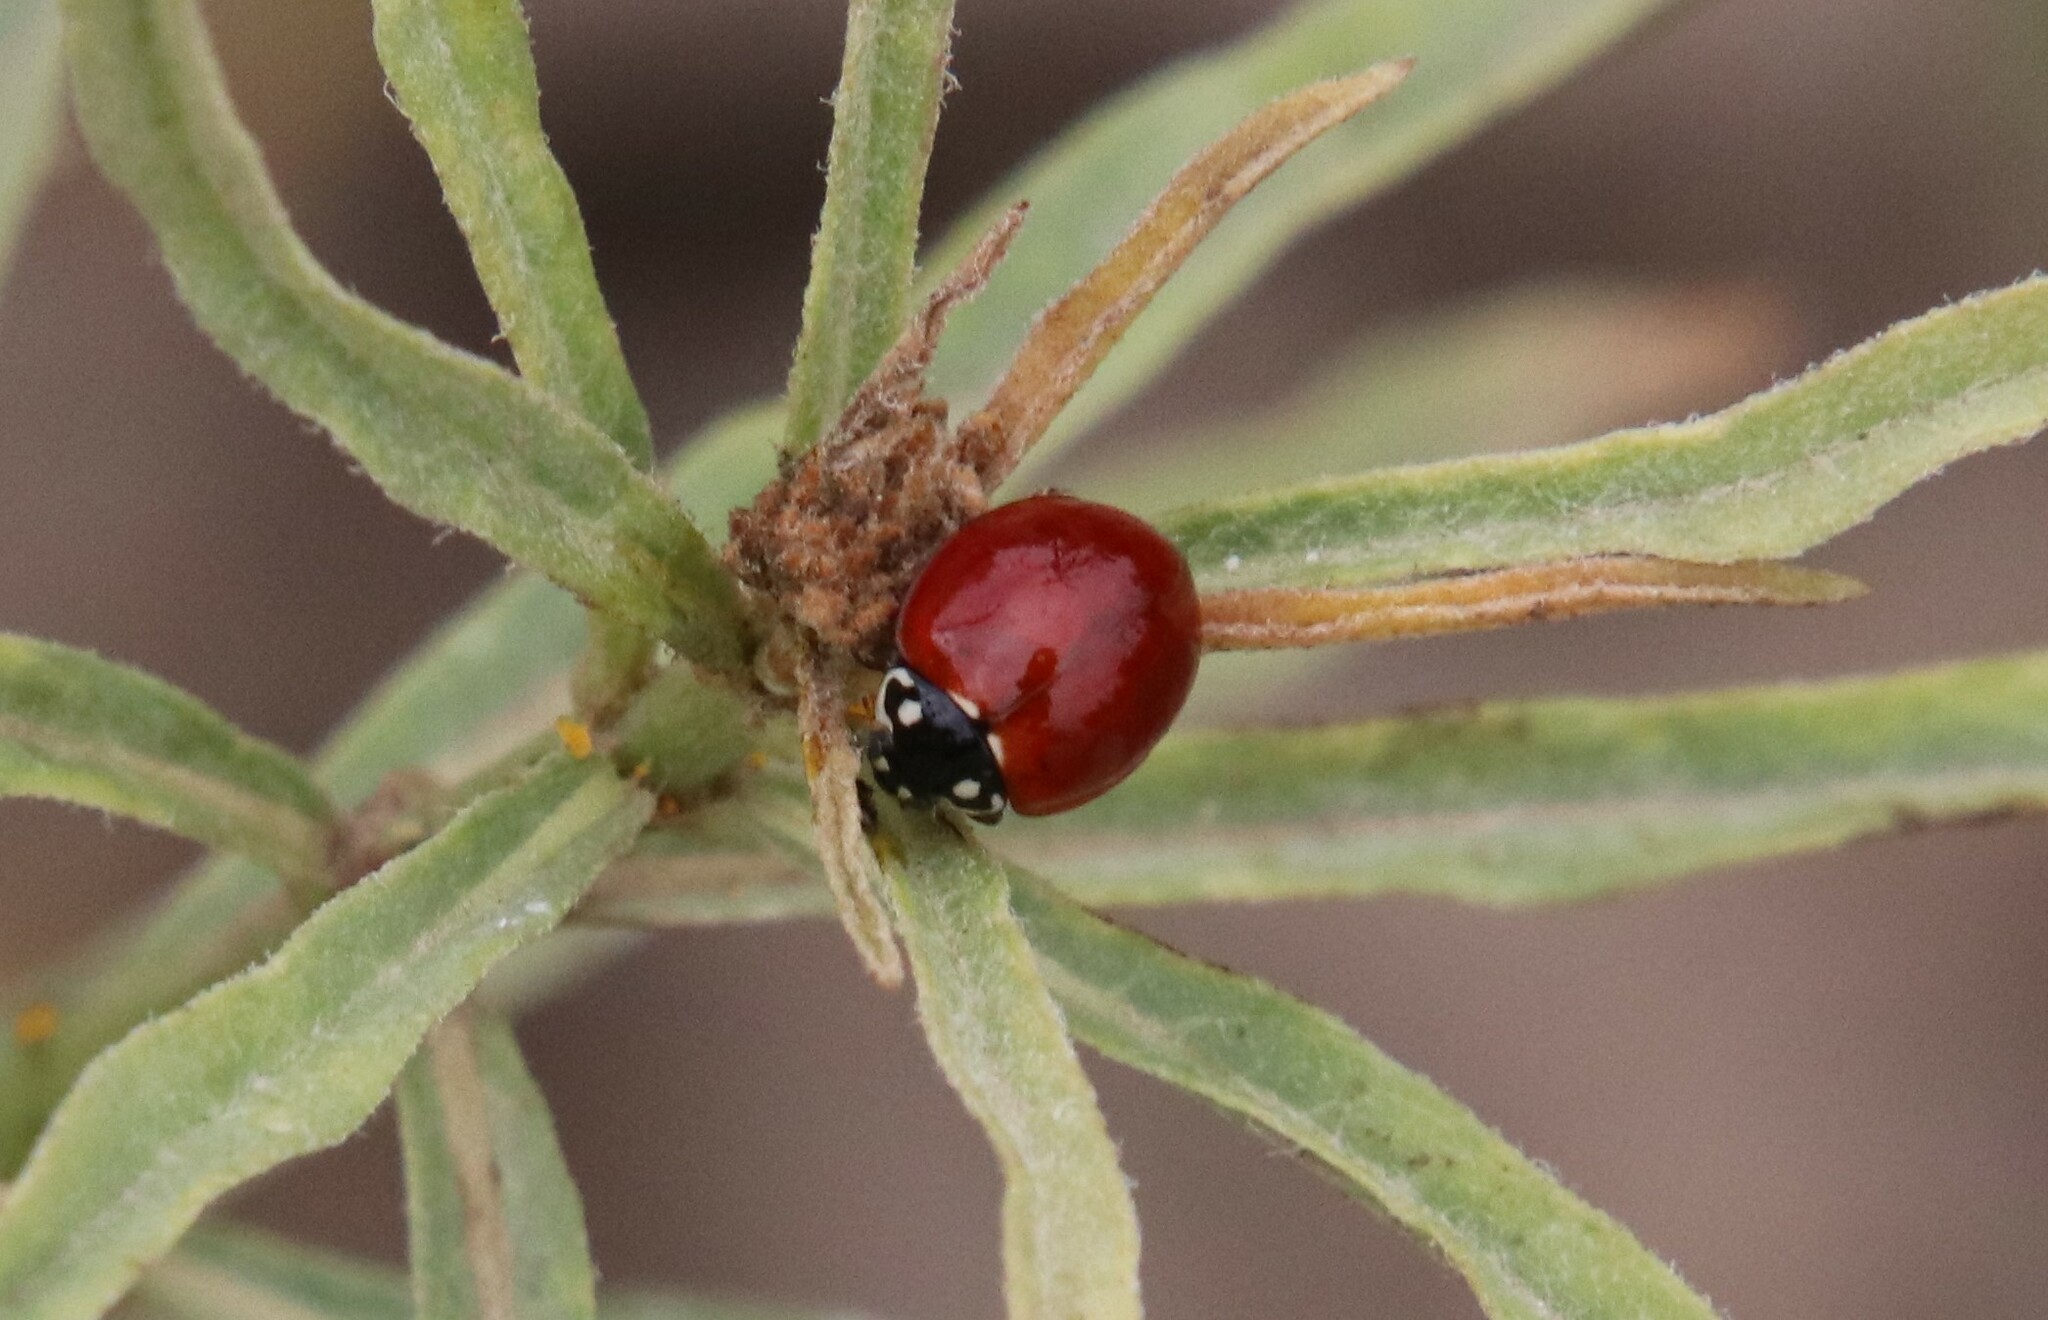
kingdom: Animalia
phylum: Arthropoda
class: Insecta
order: Coleoptera
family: Coccinellidae
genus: Cycloneda
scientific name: Cycloneda sanguinea
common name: Ladybird beetle
